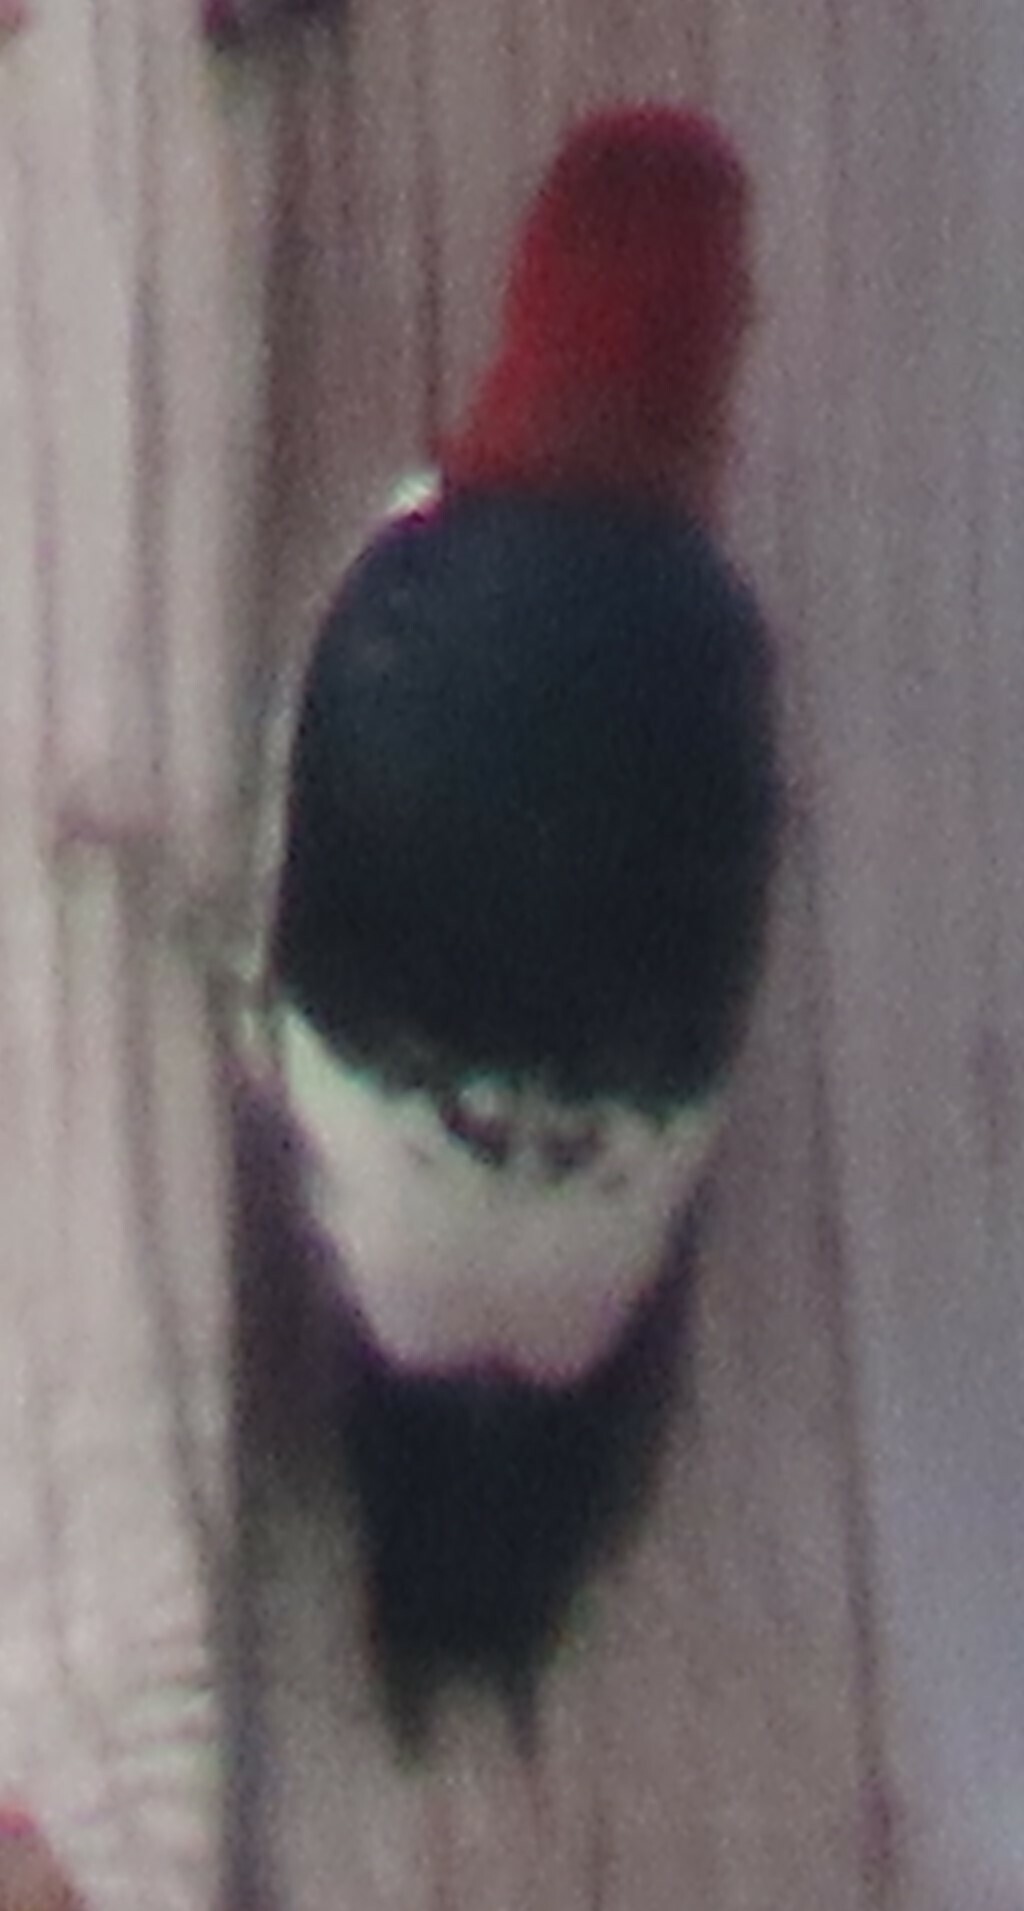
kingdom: Animalia
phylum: Chordata
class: Aves
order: Piciformes
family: Picidae
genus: Melanerpes
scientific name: Melanerpes erythrocephalus
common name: Red-headed woodpecker
